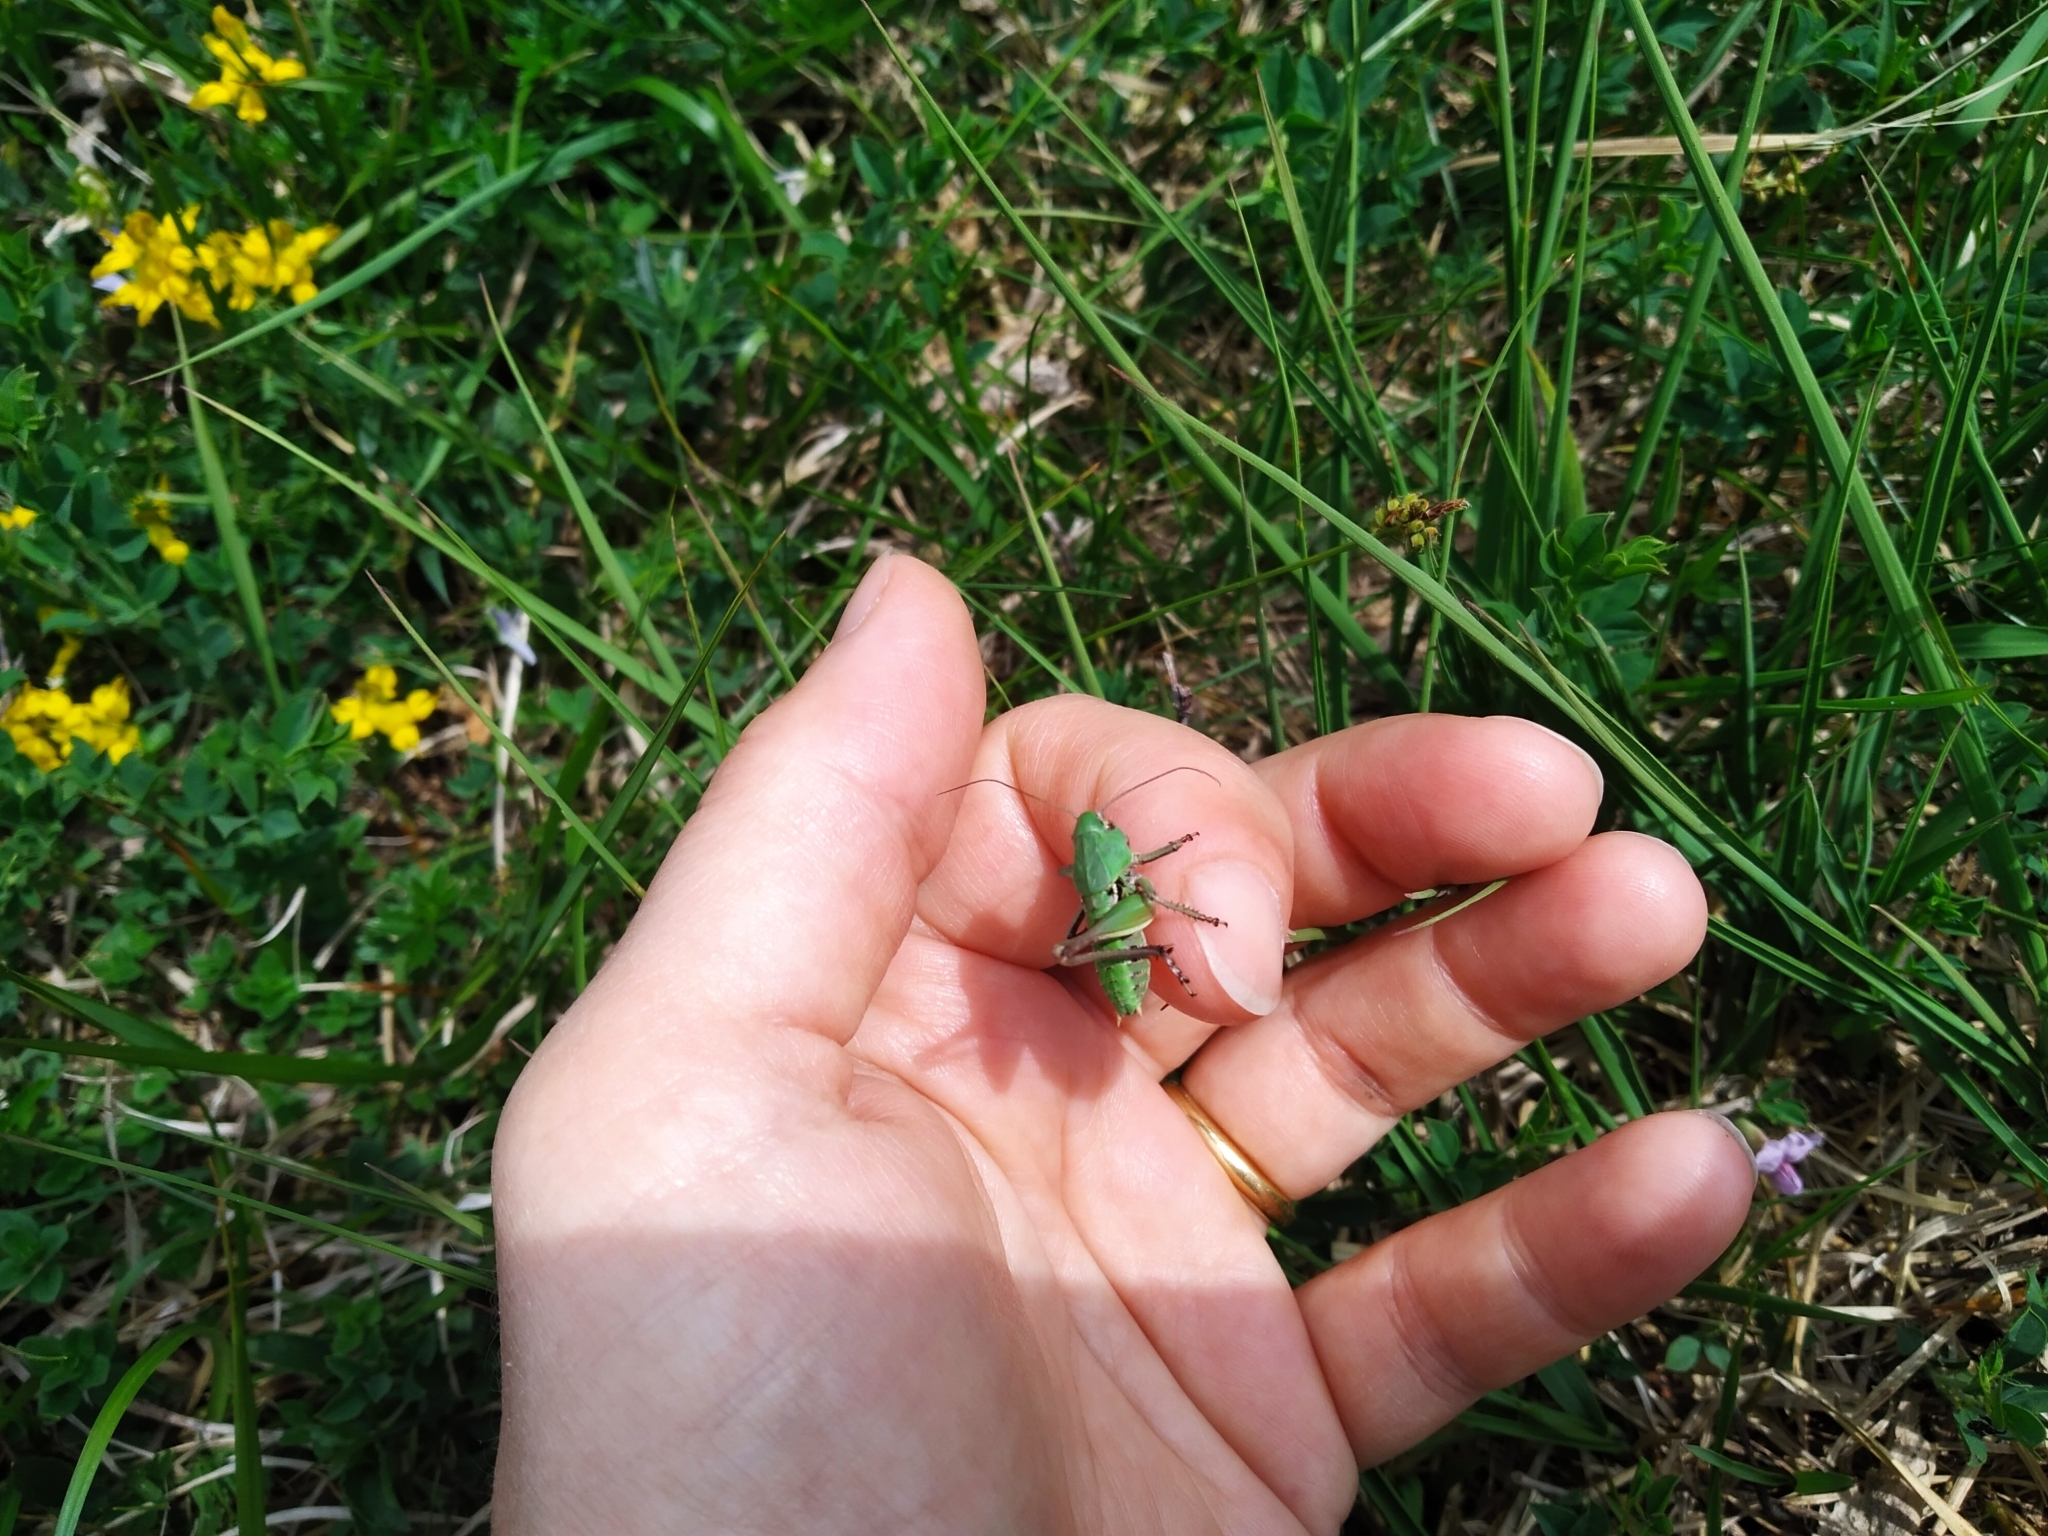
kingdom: Animalia
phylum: Arthropoda
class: Insecta
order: Orthoptera
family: Tettigoniidae
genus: Decticus
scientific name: Decticus verrucivorus
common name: Wart-biter
